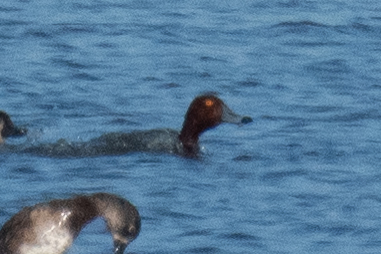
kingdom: Animalia
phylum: Chordata
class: Aves
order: Anseriformes
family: Anatidae
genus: Aythya
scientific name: Aythya americana
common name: Redhead
